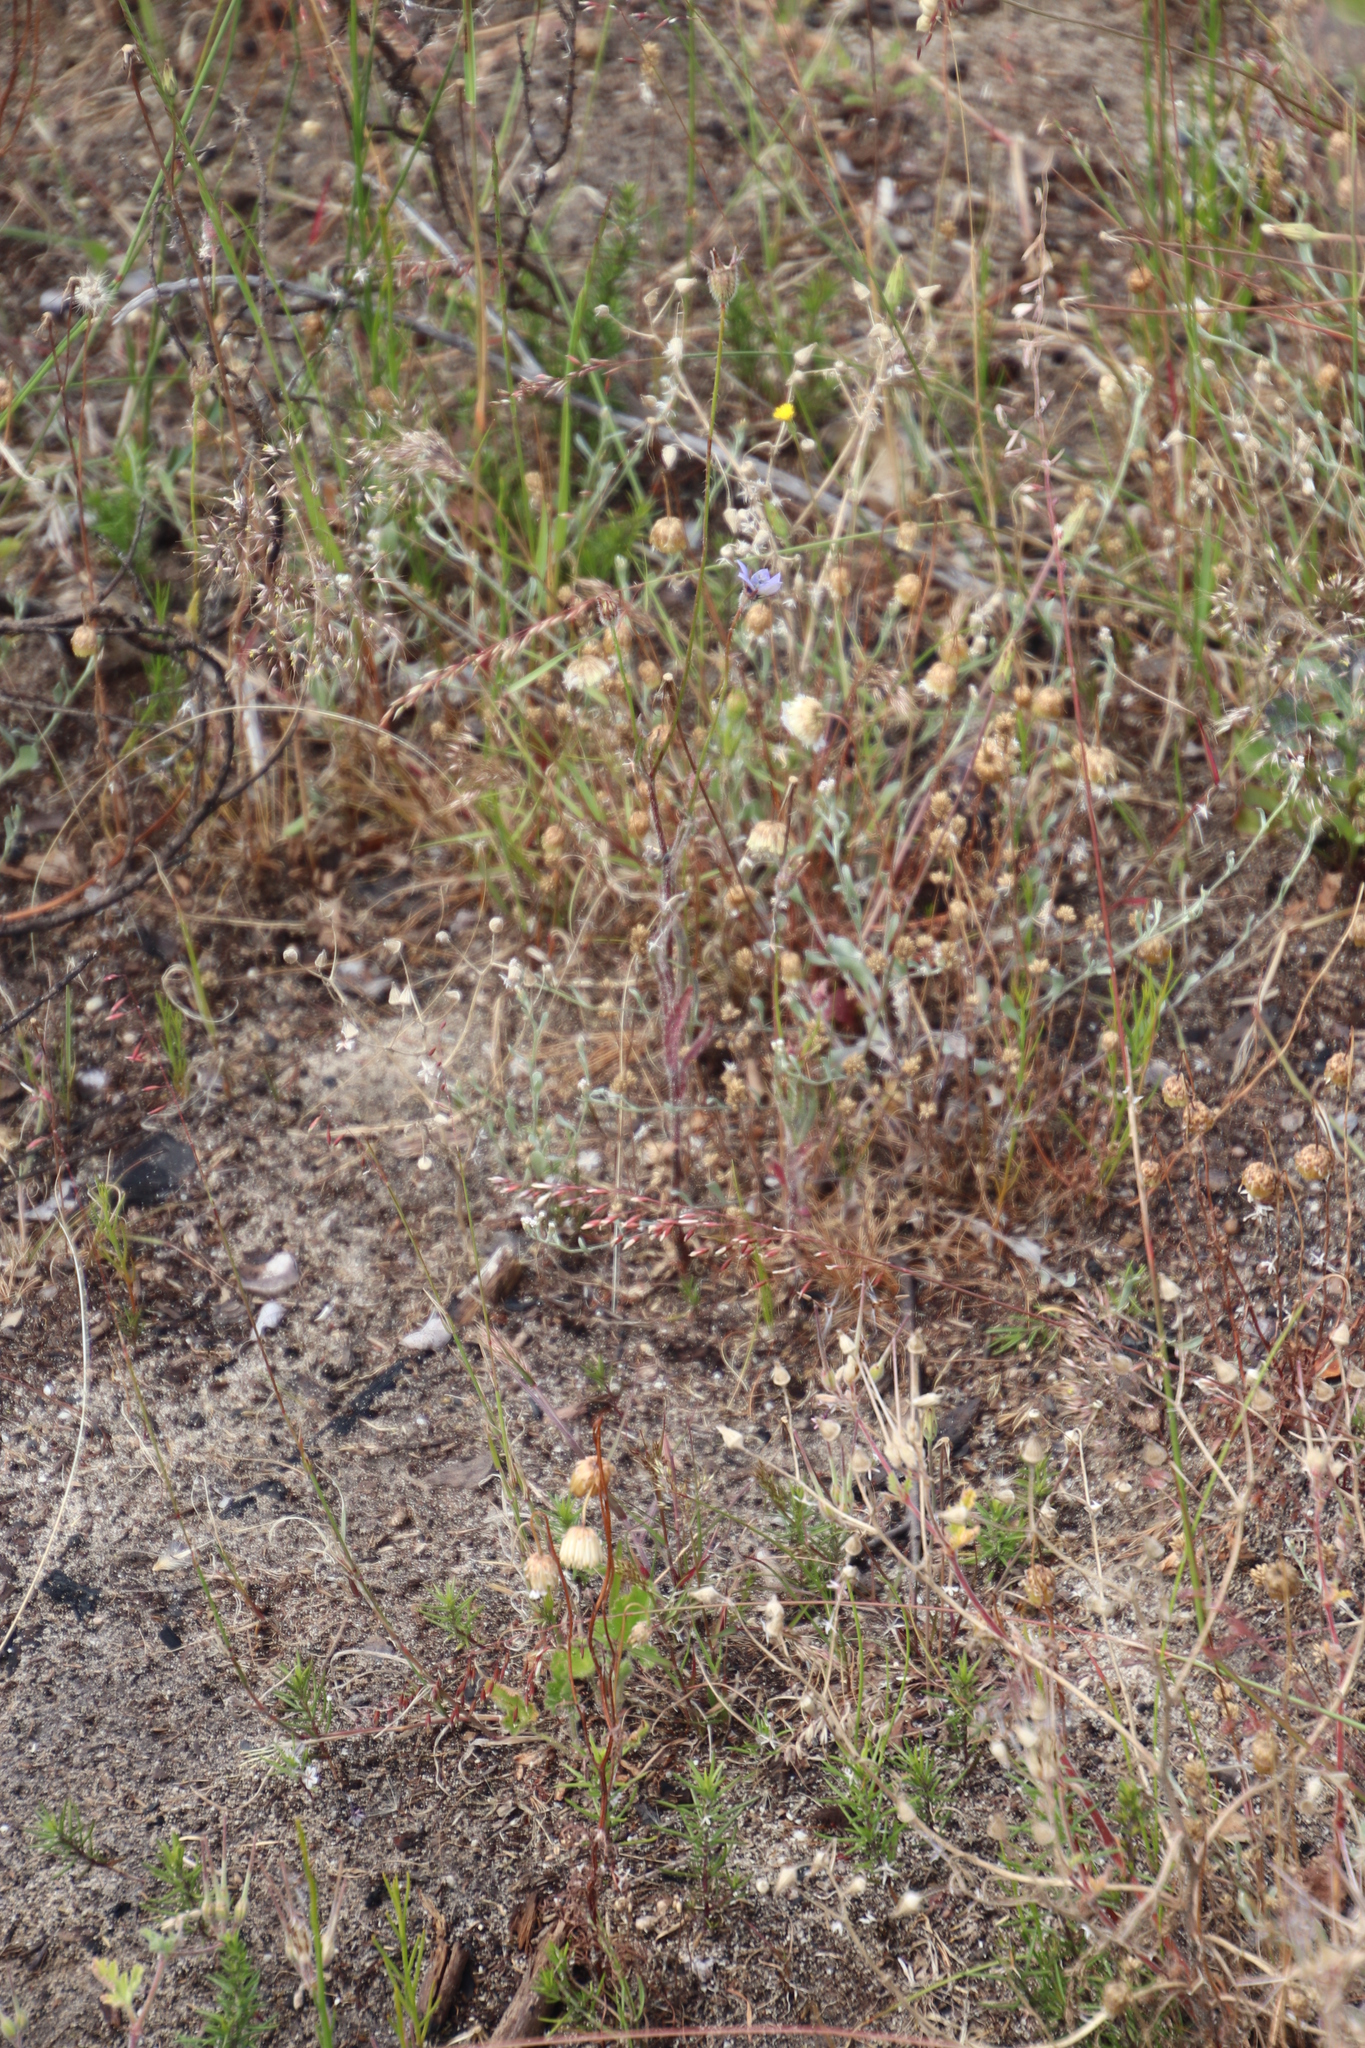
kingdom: Plantae
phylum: Tracheophyta
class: Magnoliopsida
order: Asterales
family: Campanulaceae
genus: Wahlenbergia
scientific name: Wahlenbergia capensis
